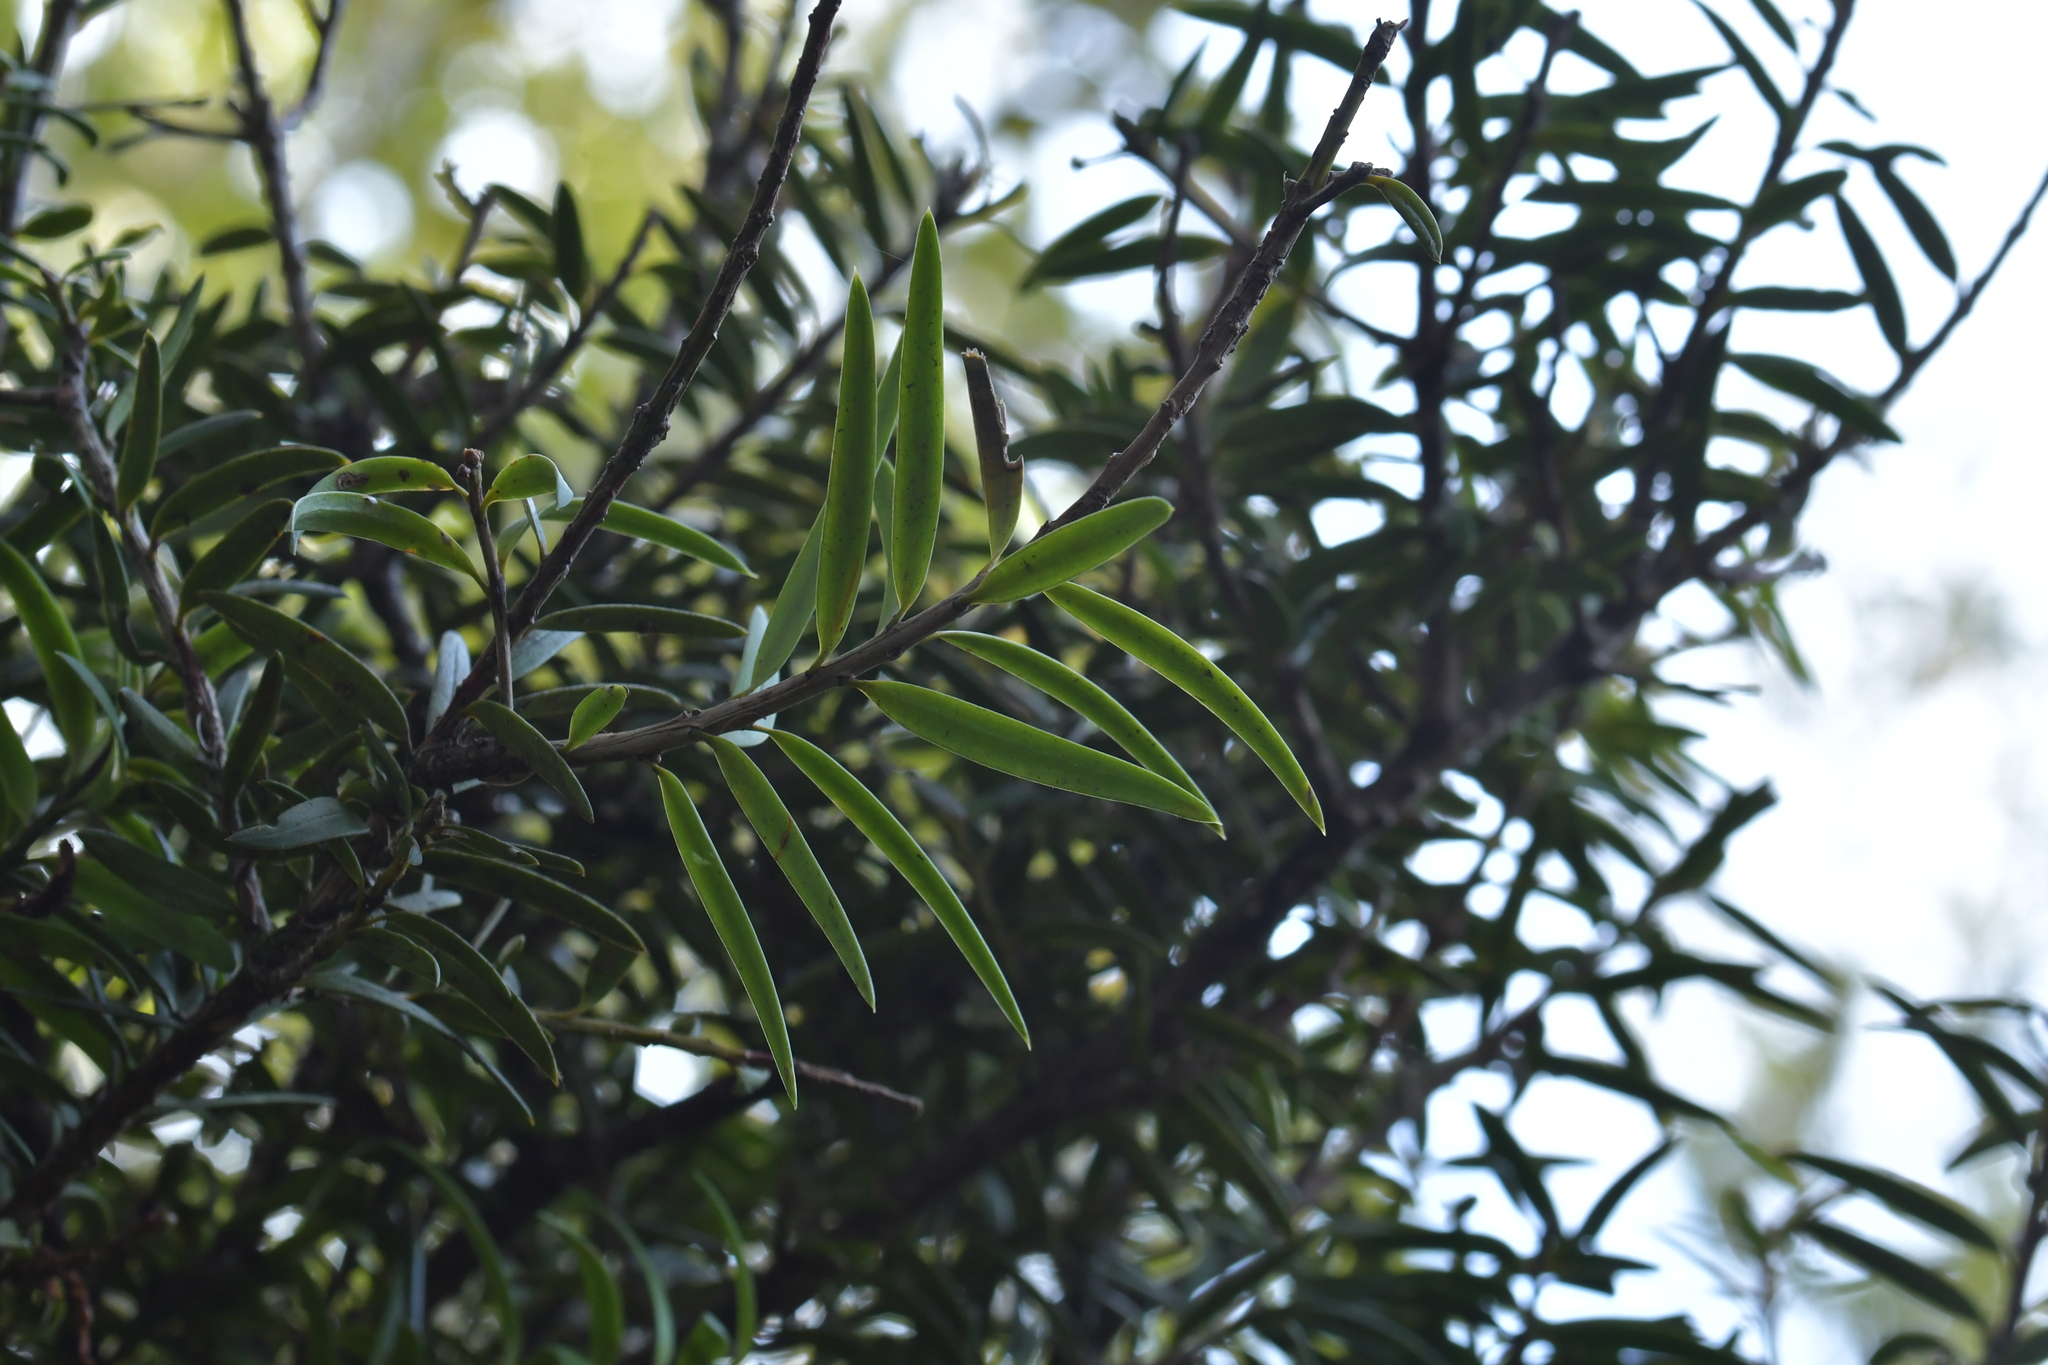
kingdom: Plantae
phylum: Tracheophyta
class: Pinopsida
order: Pinales
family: Podocarpaceae
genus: Podocarpus
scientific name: Podocarpus laetus
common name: Hall's totara
